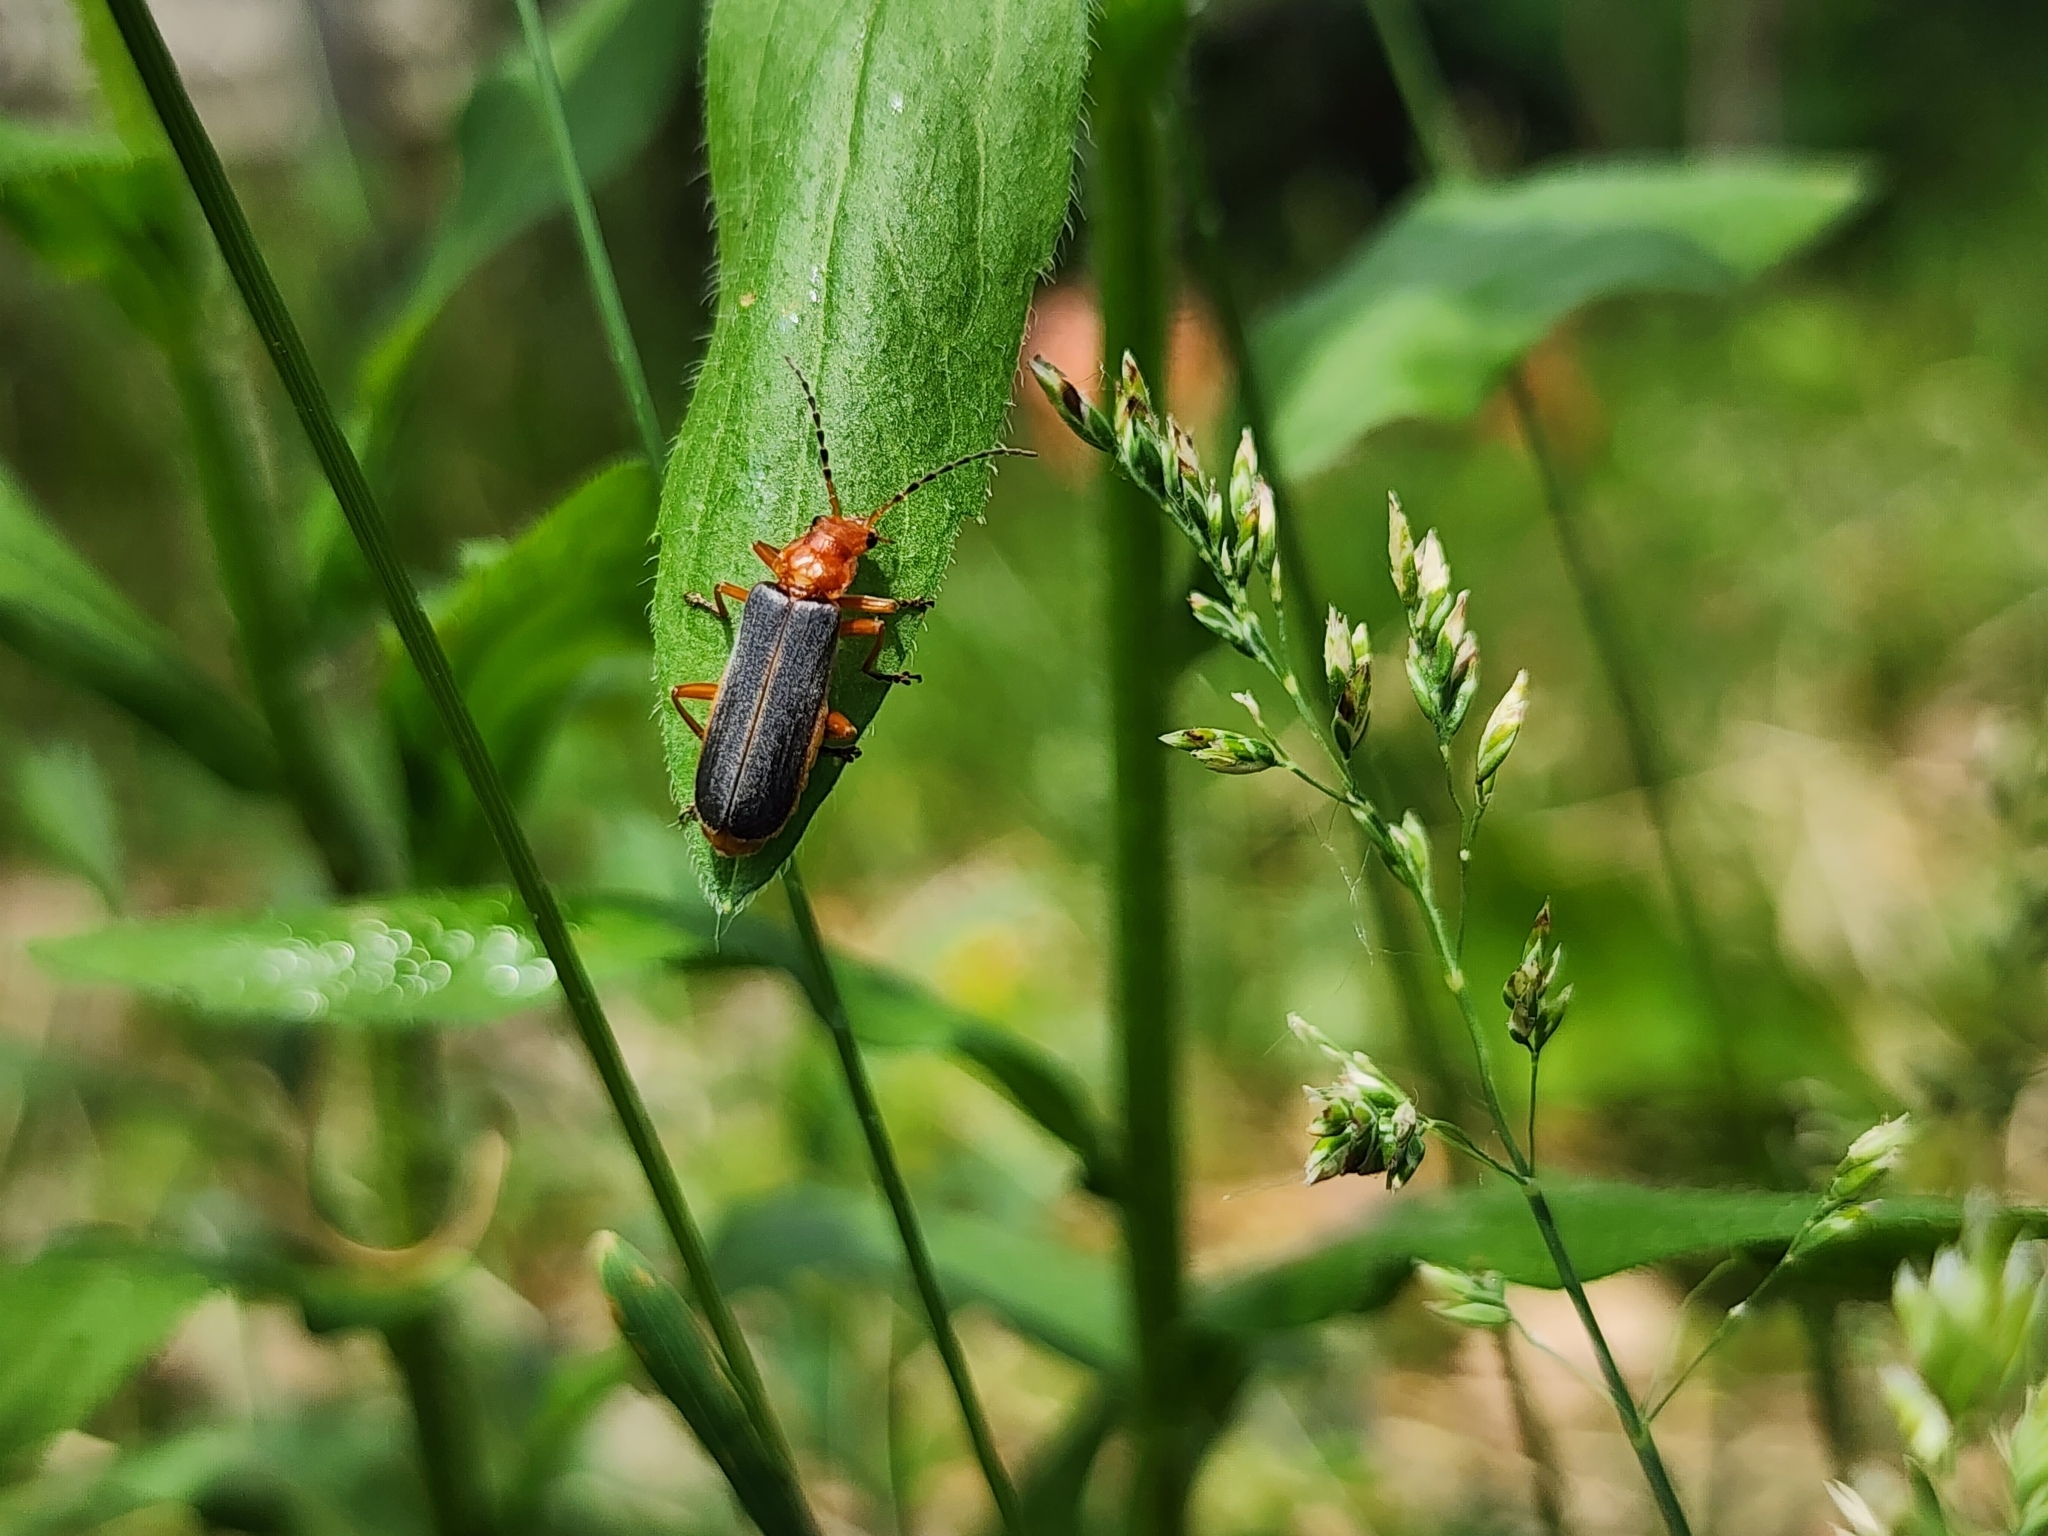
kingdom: Animalia
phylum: Arthropoda
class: Insecta
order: Coleoptera
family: Cantharidae
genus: Podabrus
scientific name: Podabrus tomentosus
